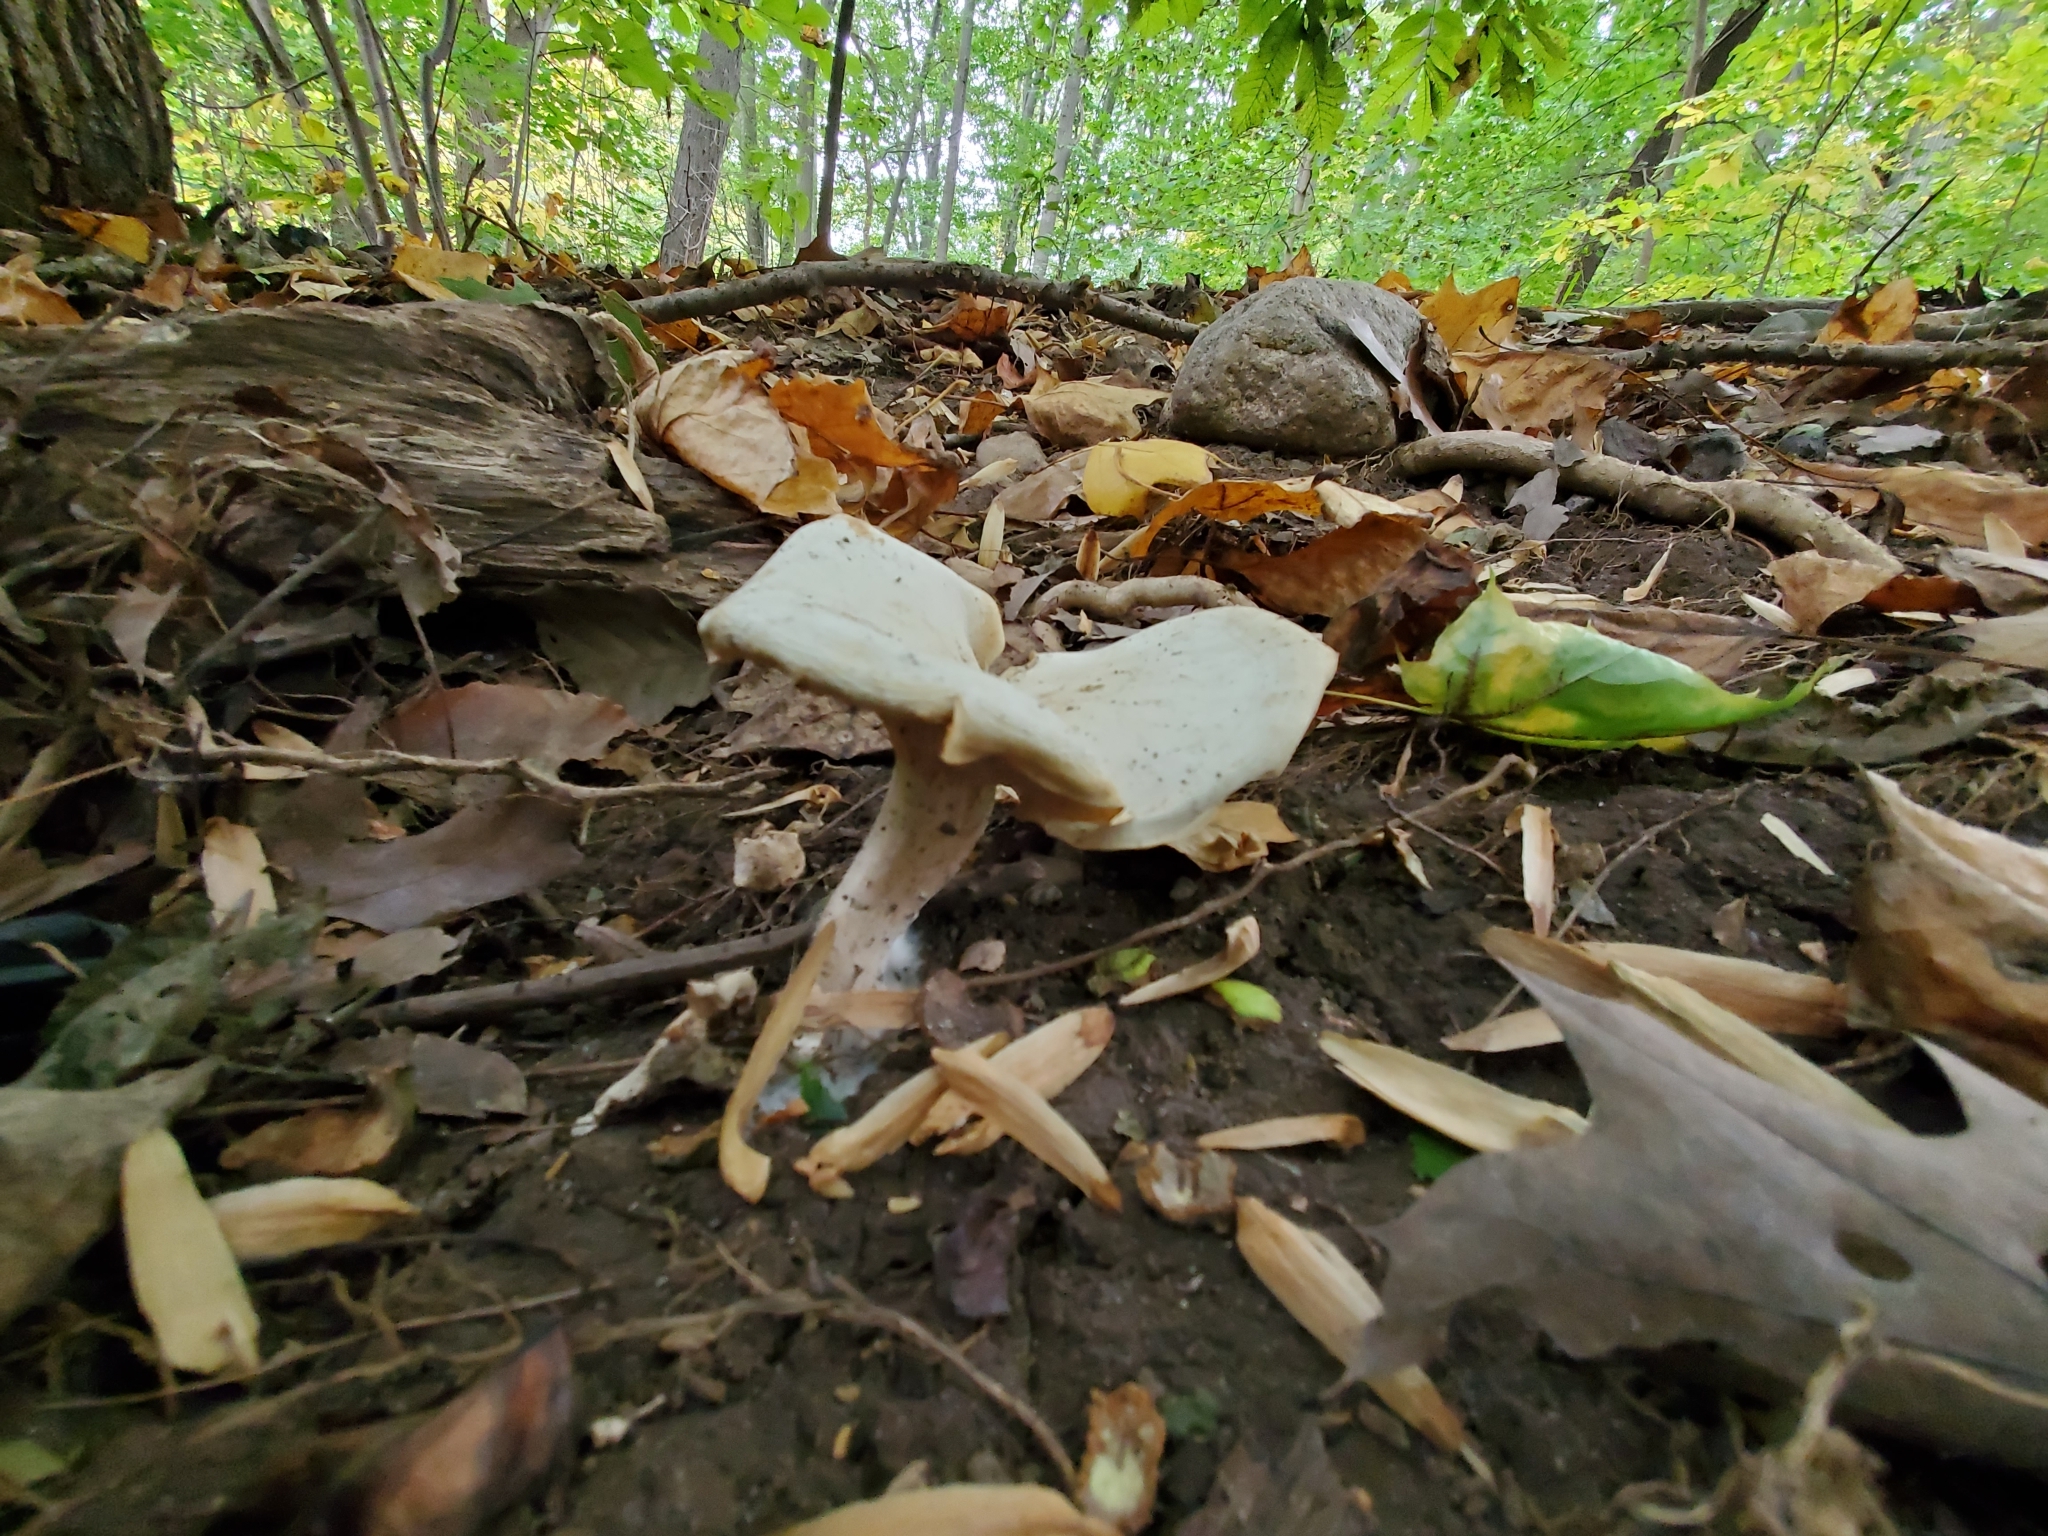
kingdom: Fungi
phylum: Basidiomycota
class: Agaricomycetes
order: Agaricales
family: Tricholomataceae
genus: Clitocybe
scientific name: Clitocybe robusta
